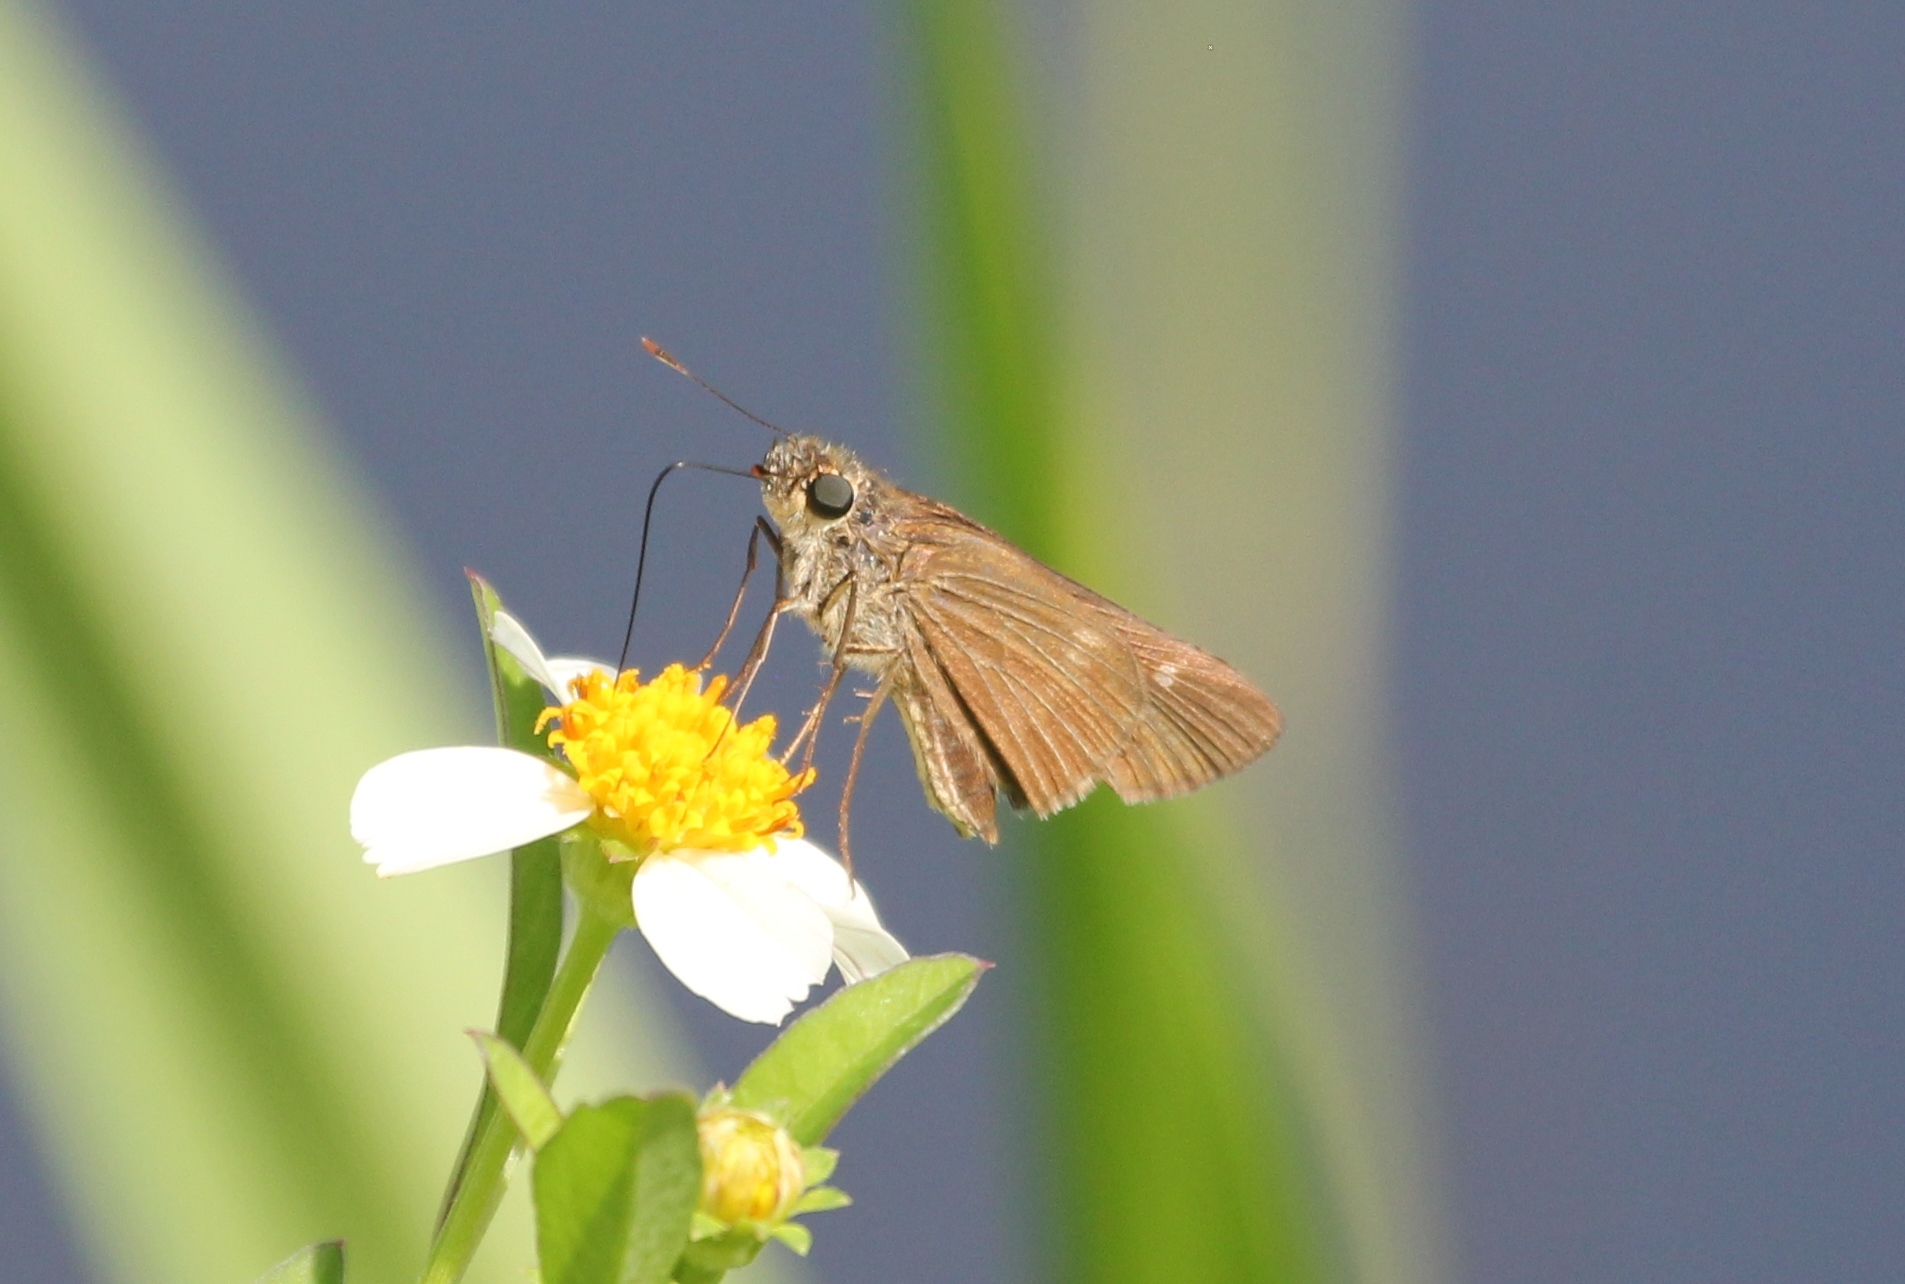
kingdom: Animalia
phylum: Arthropoda
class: Insecta
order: Lepidoptera
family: Hesperiidae
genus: Panoquina
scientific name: Panoquina ocola
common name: Ocola skipper
